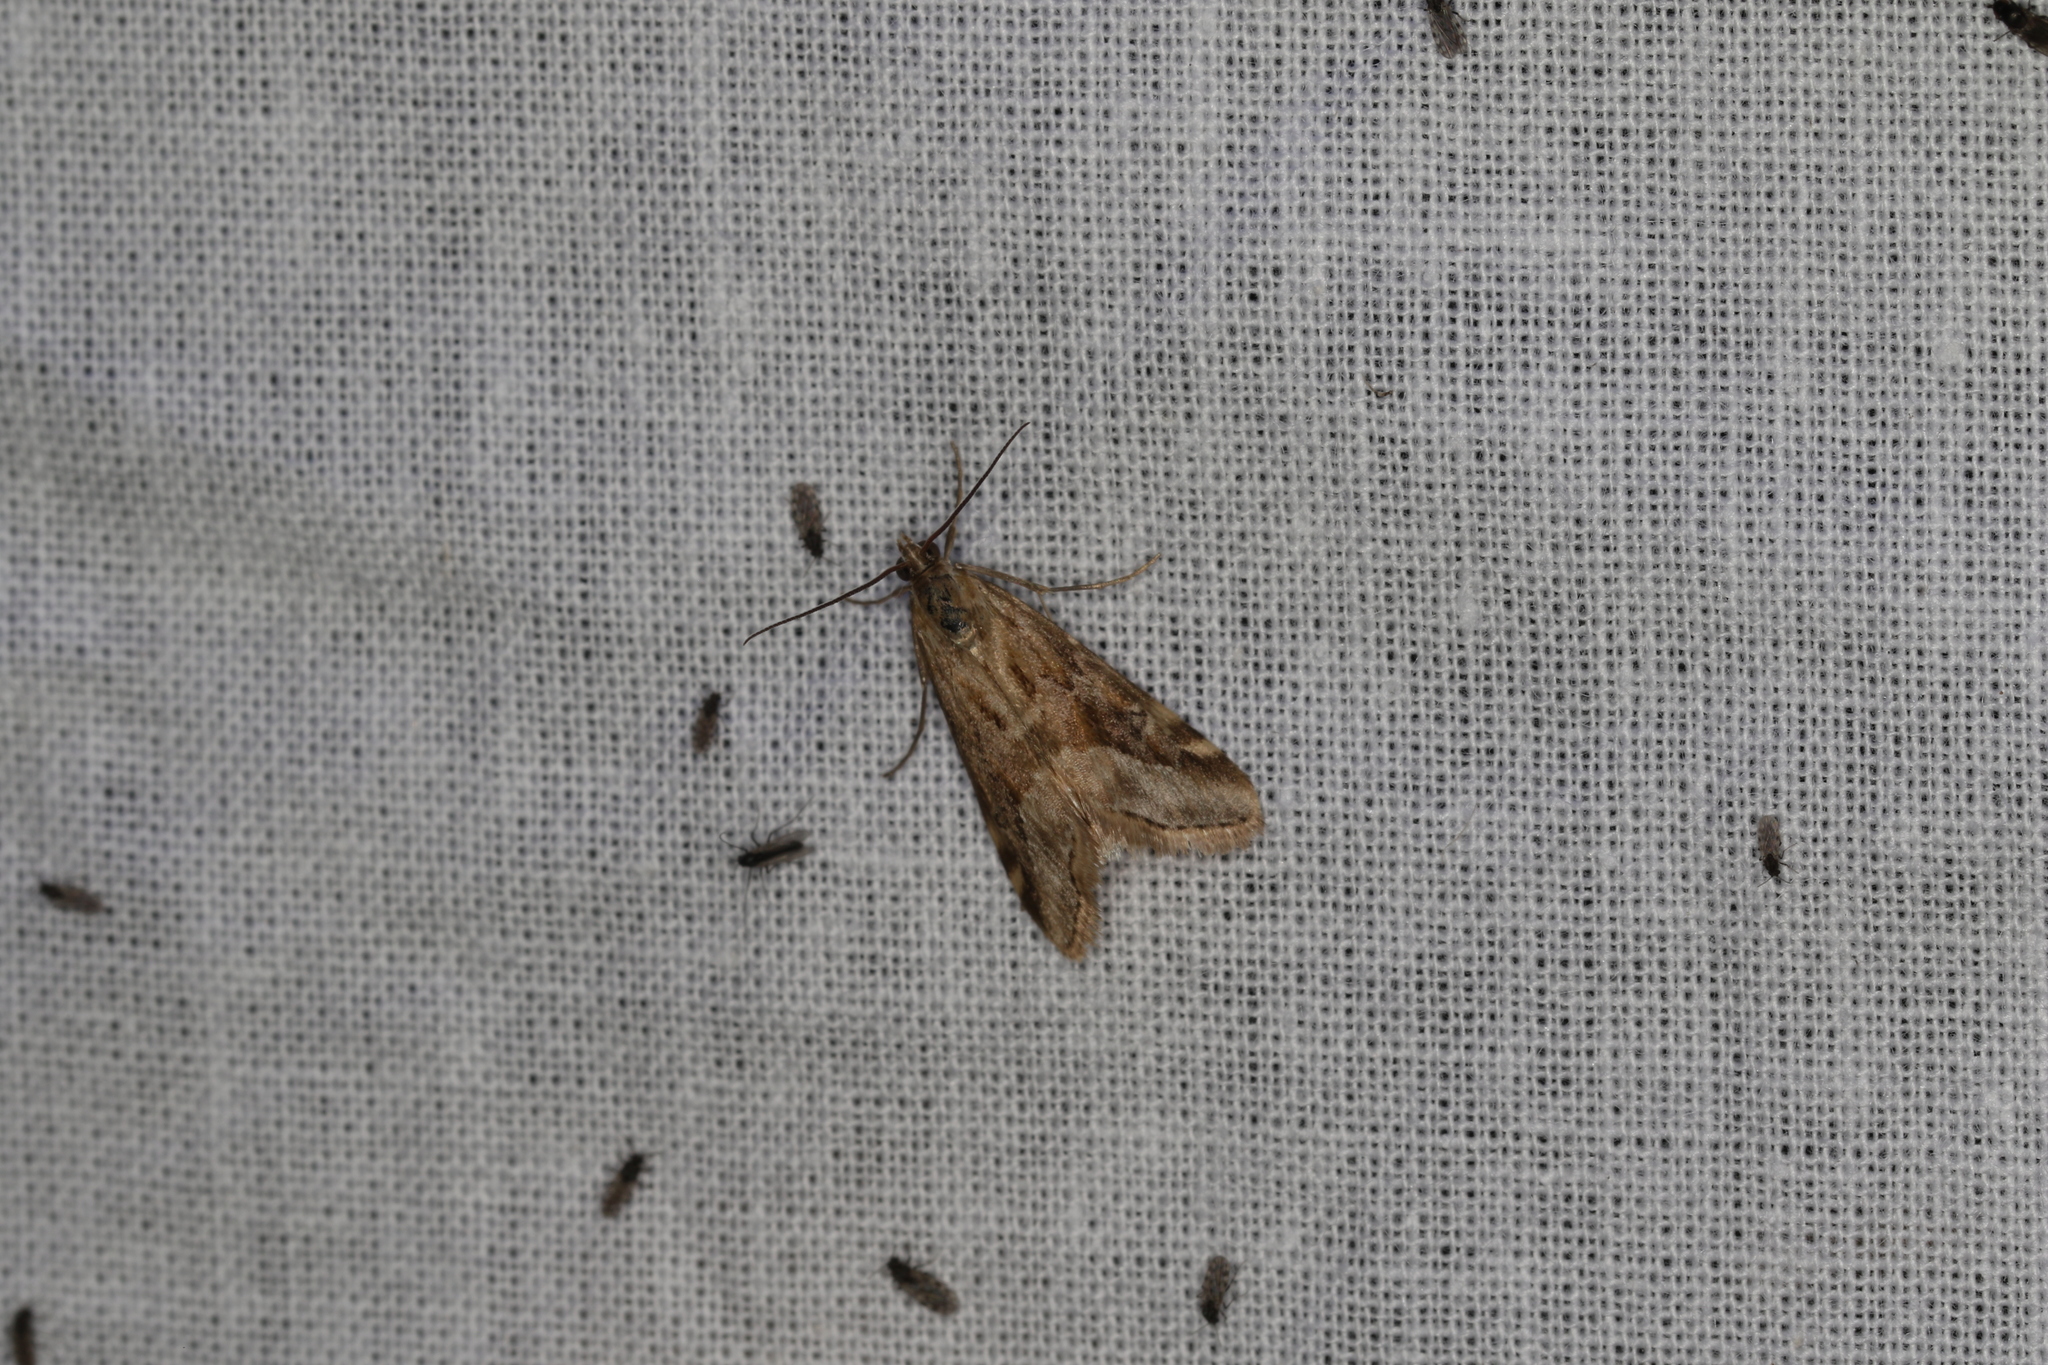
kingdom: Animalia
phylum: Arthropoda
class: Insecta
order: Lepidoptera
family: Crambidae
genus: Hellula
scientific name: Hellula hydralis
